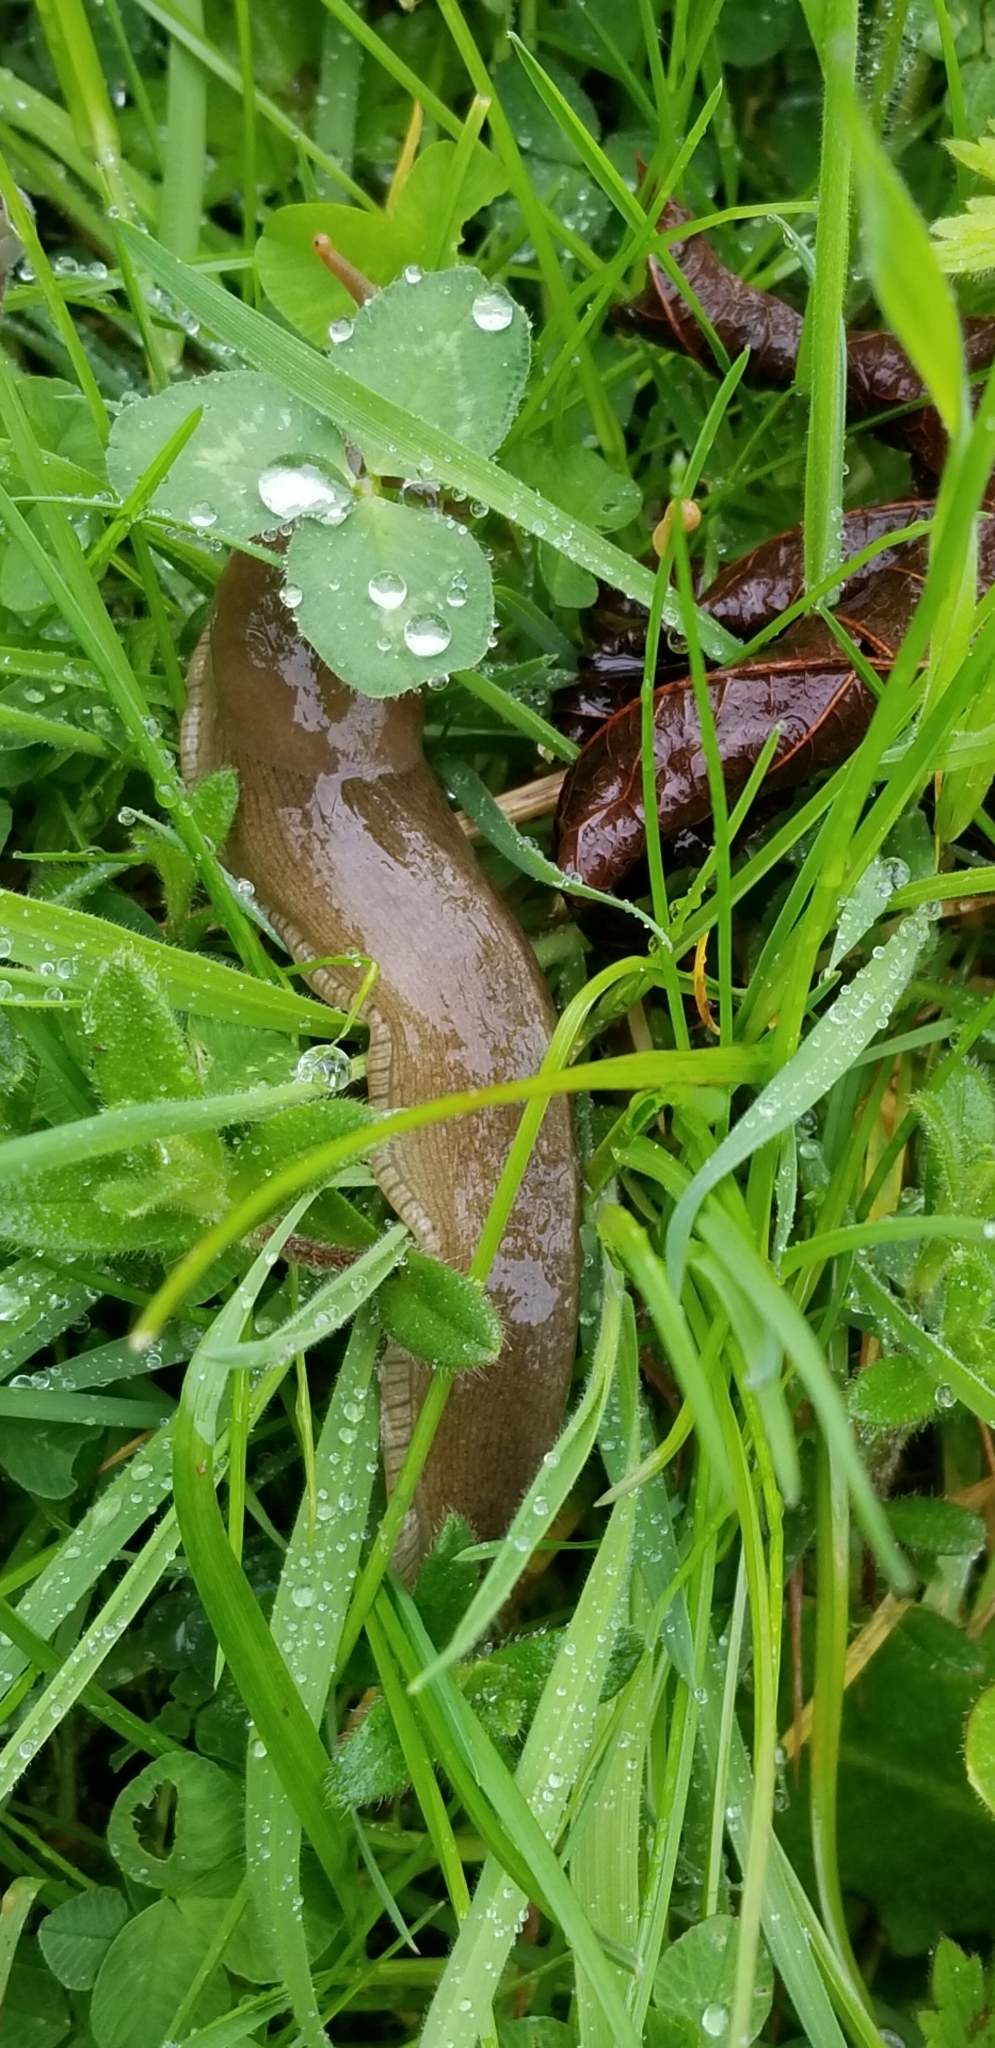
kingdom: Animalia
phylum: Mollusca
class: Gastropoda
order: Stylommatophora
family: Ariolimacidae
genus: Ariolimax
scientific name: Ariolimax columbianus
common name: Pacific banana slug
